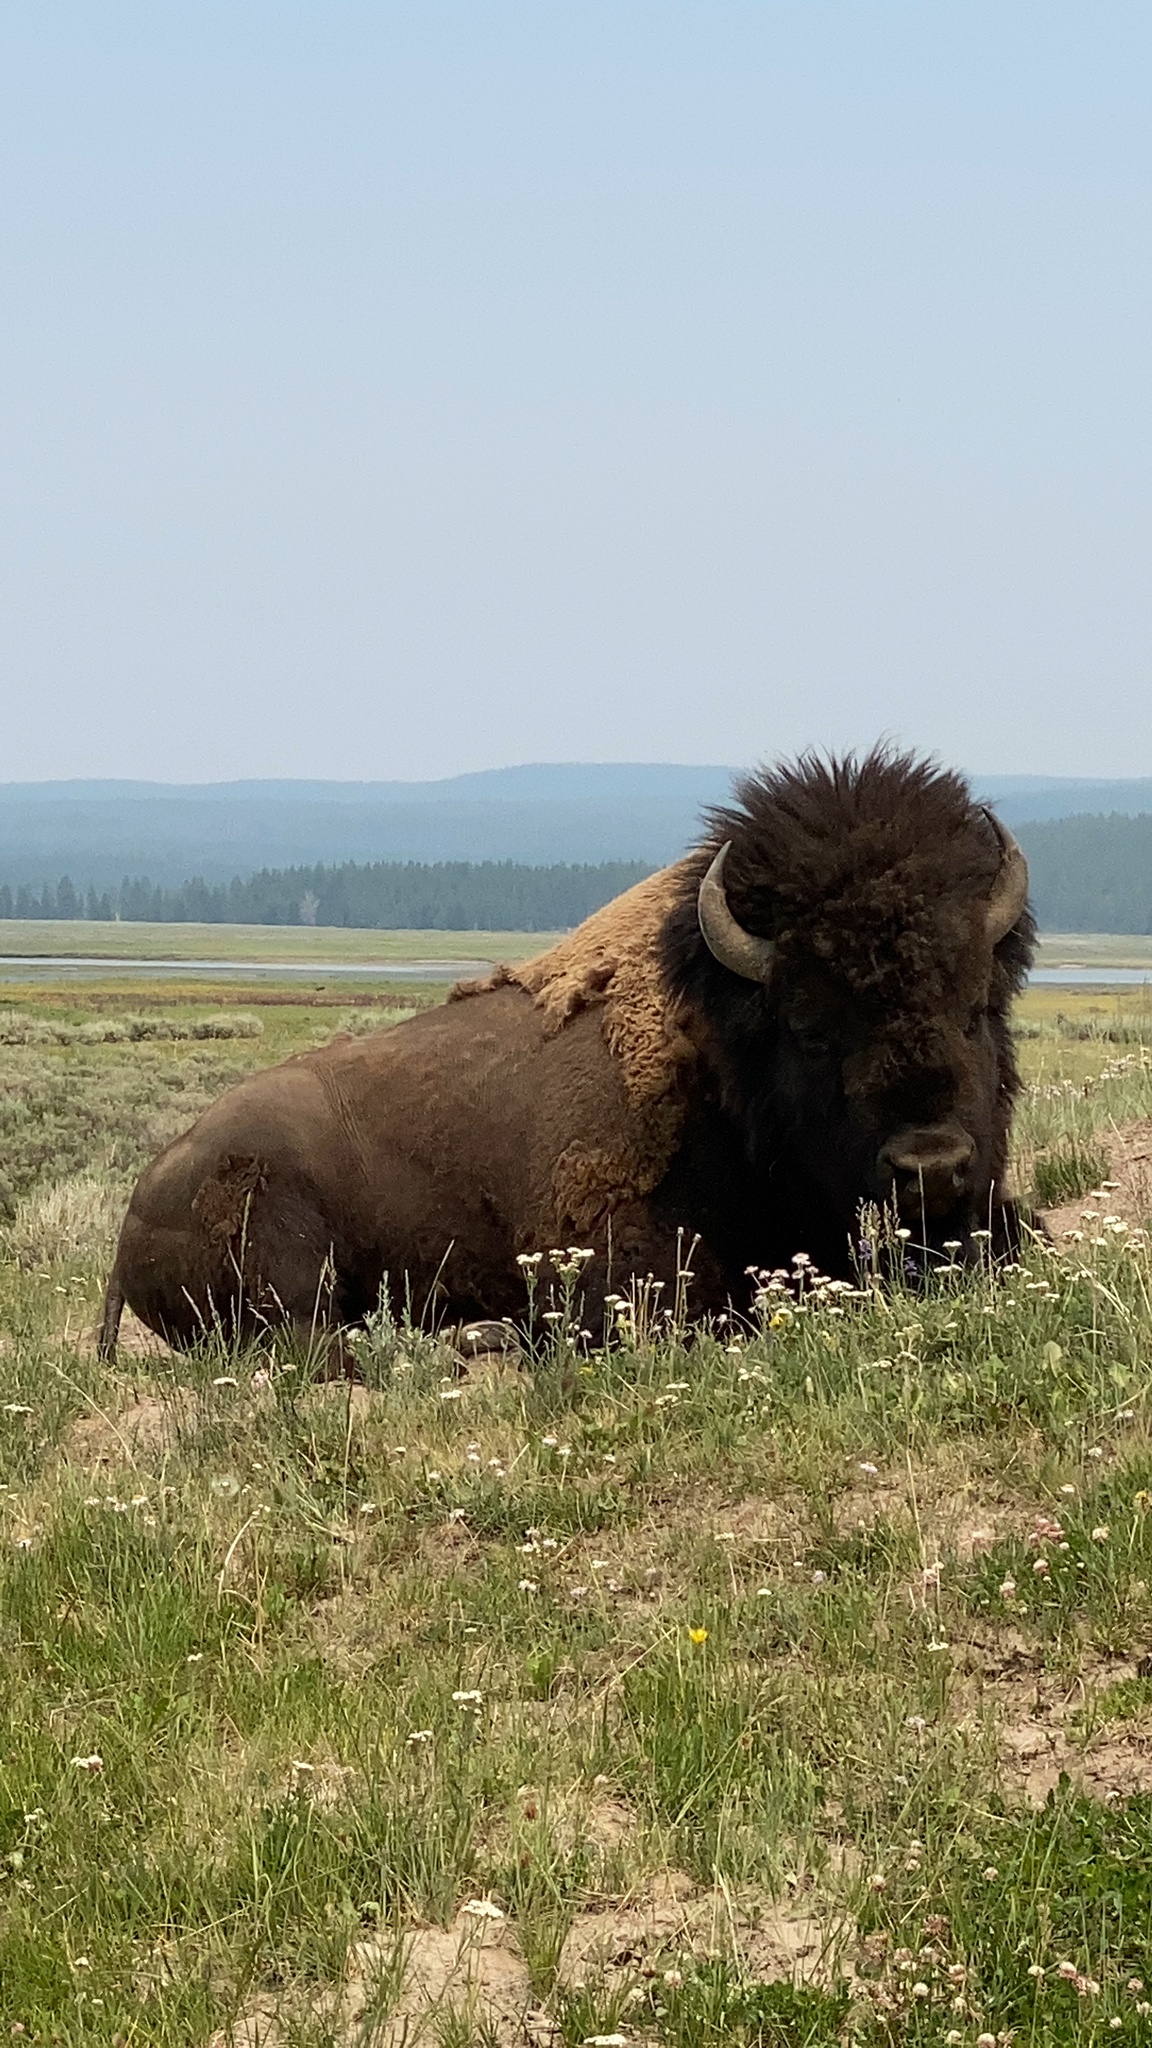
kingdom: Animalia
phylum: Chordata
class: Mammalia
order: Artiodactyla
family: Bovidae
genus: Bison
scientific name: Bison bison
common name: American bison
